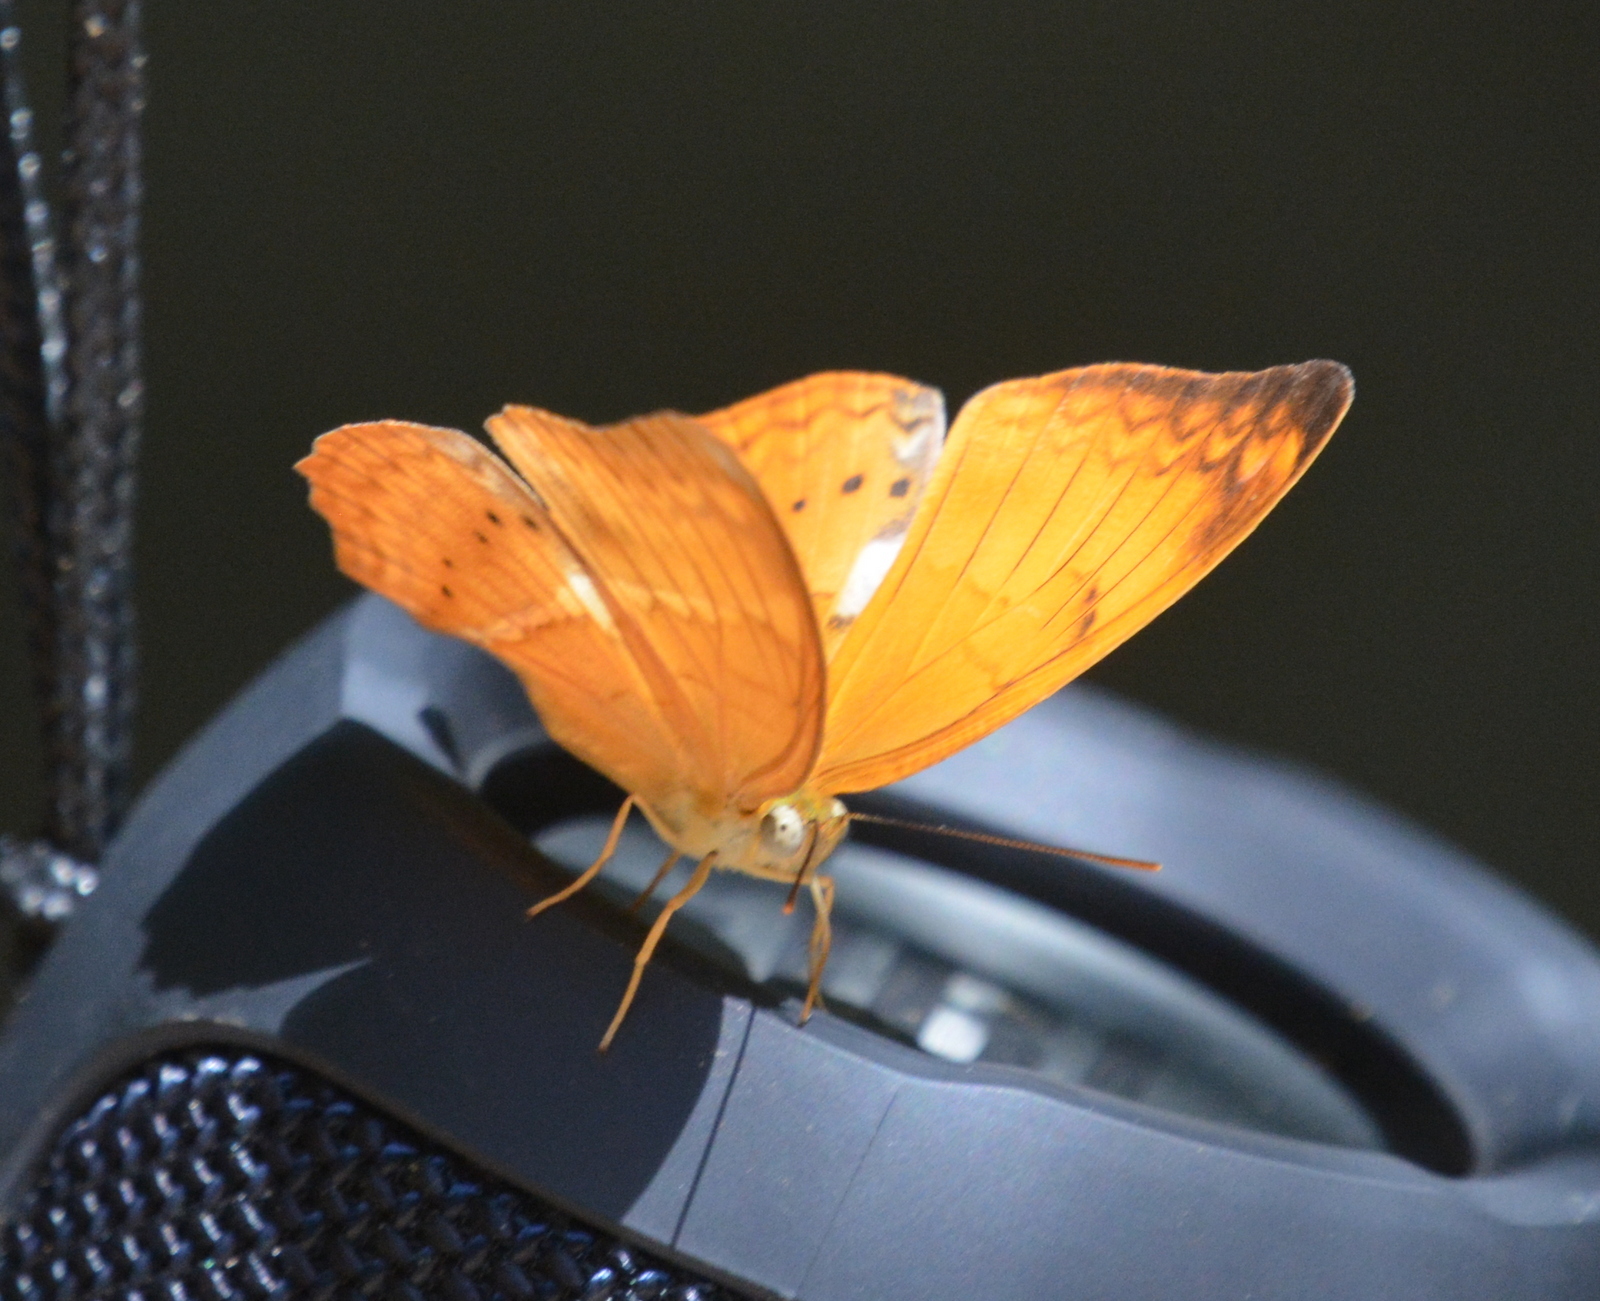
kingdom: Animalia
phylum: Arthropoda
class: Insecta
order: Lepidoptera
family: Nymphalidae
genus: Cirrochroa
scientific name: Cirrochroa thais
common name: Tamil yeoman
